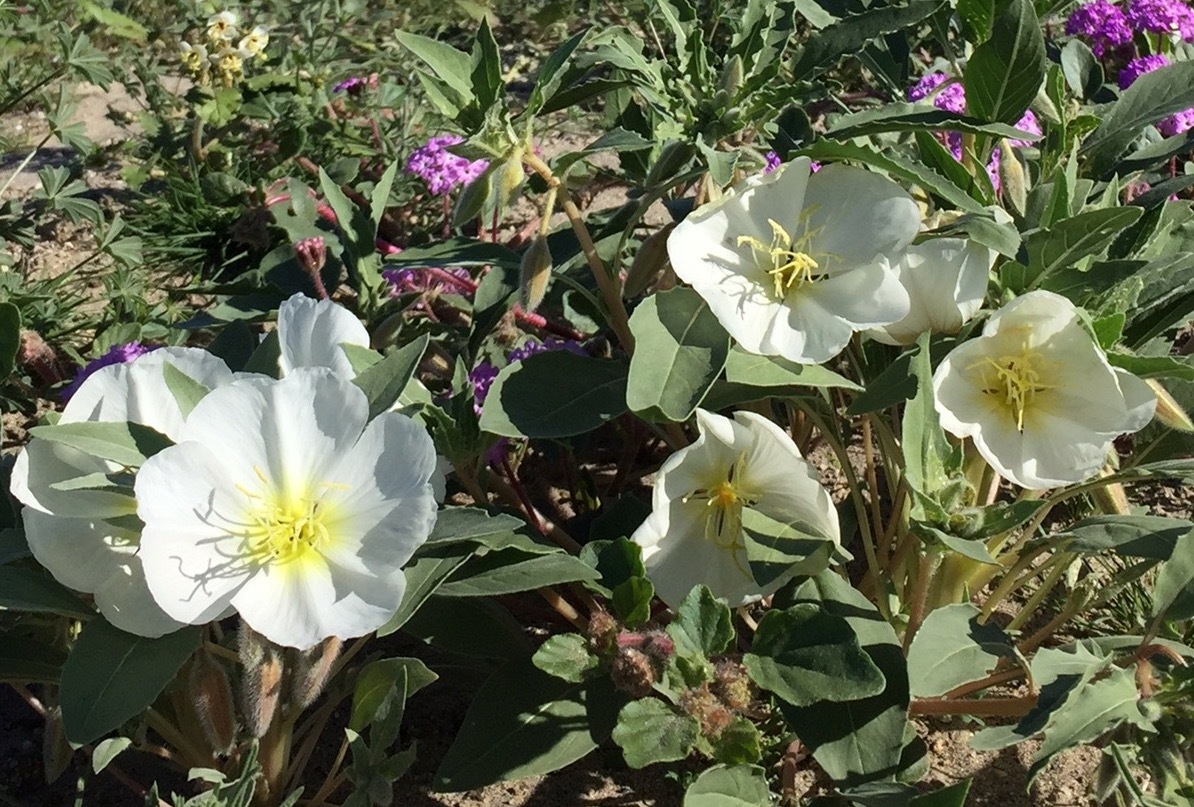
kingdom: Plantae
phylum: Tracheophyta
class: Magnoliopsida
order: Myrtales
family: Onagraceae
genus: Oenothera
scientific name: Oenothera deltoides
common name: Basket evening-primrose
